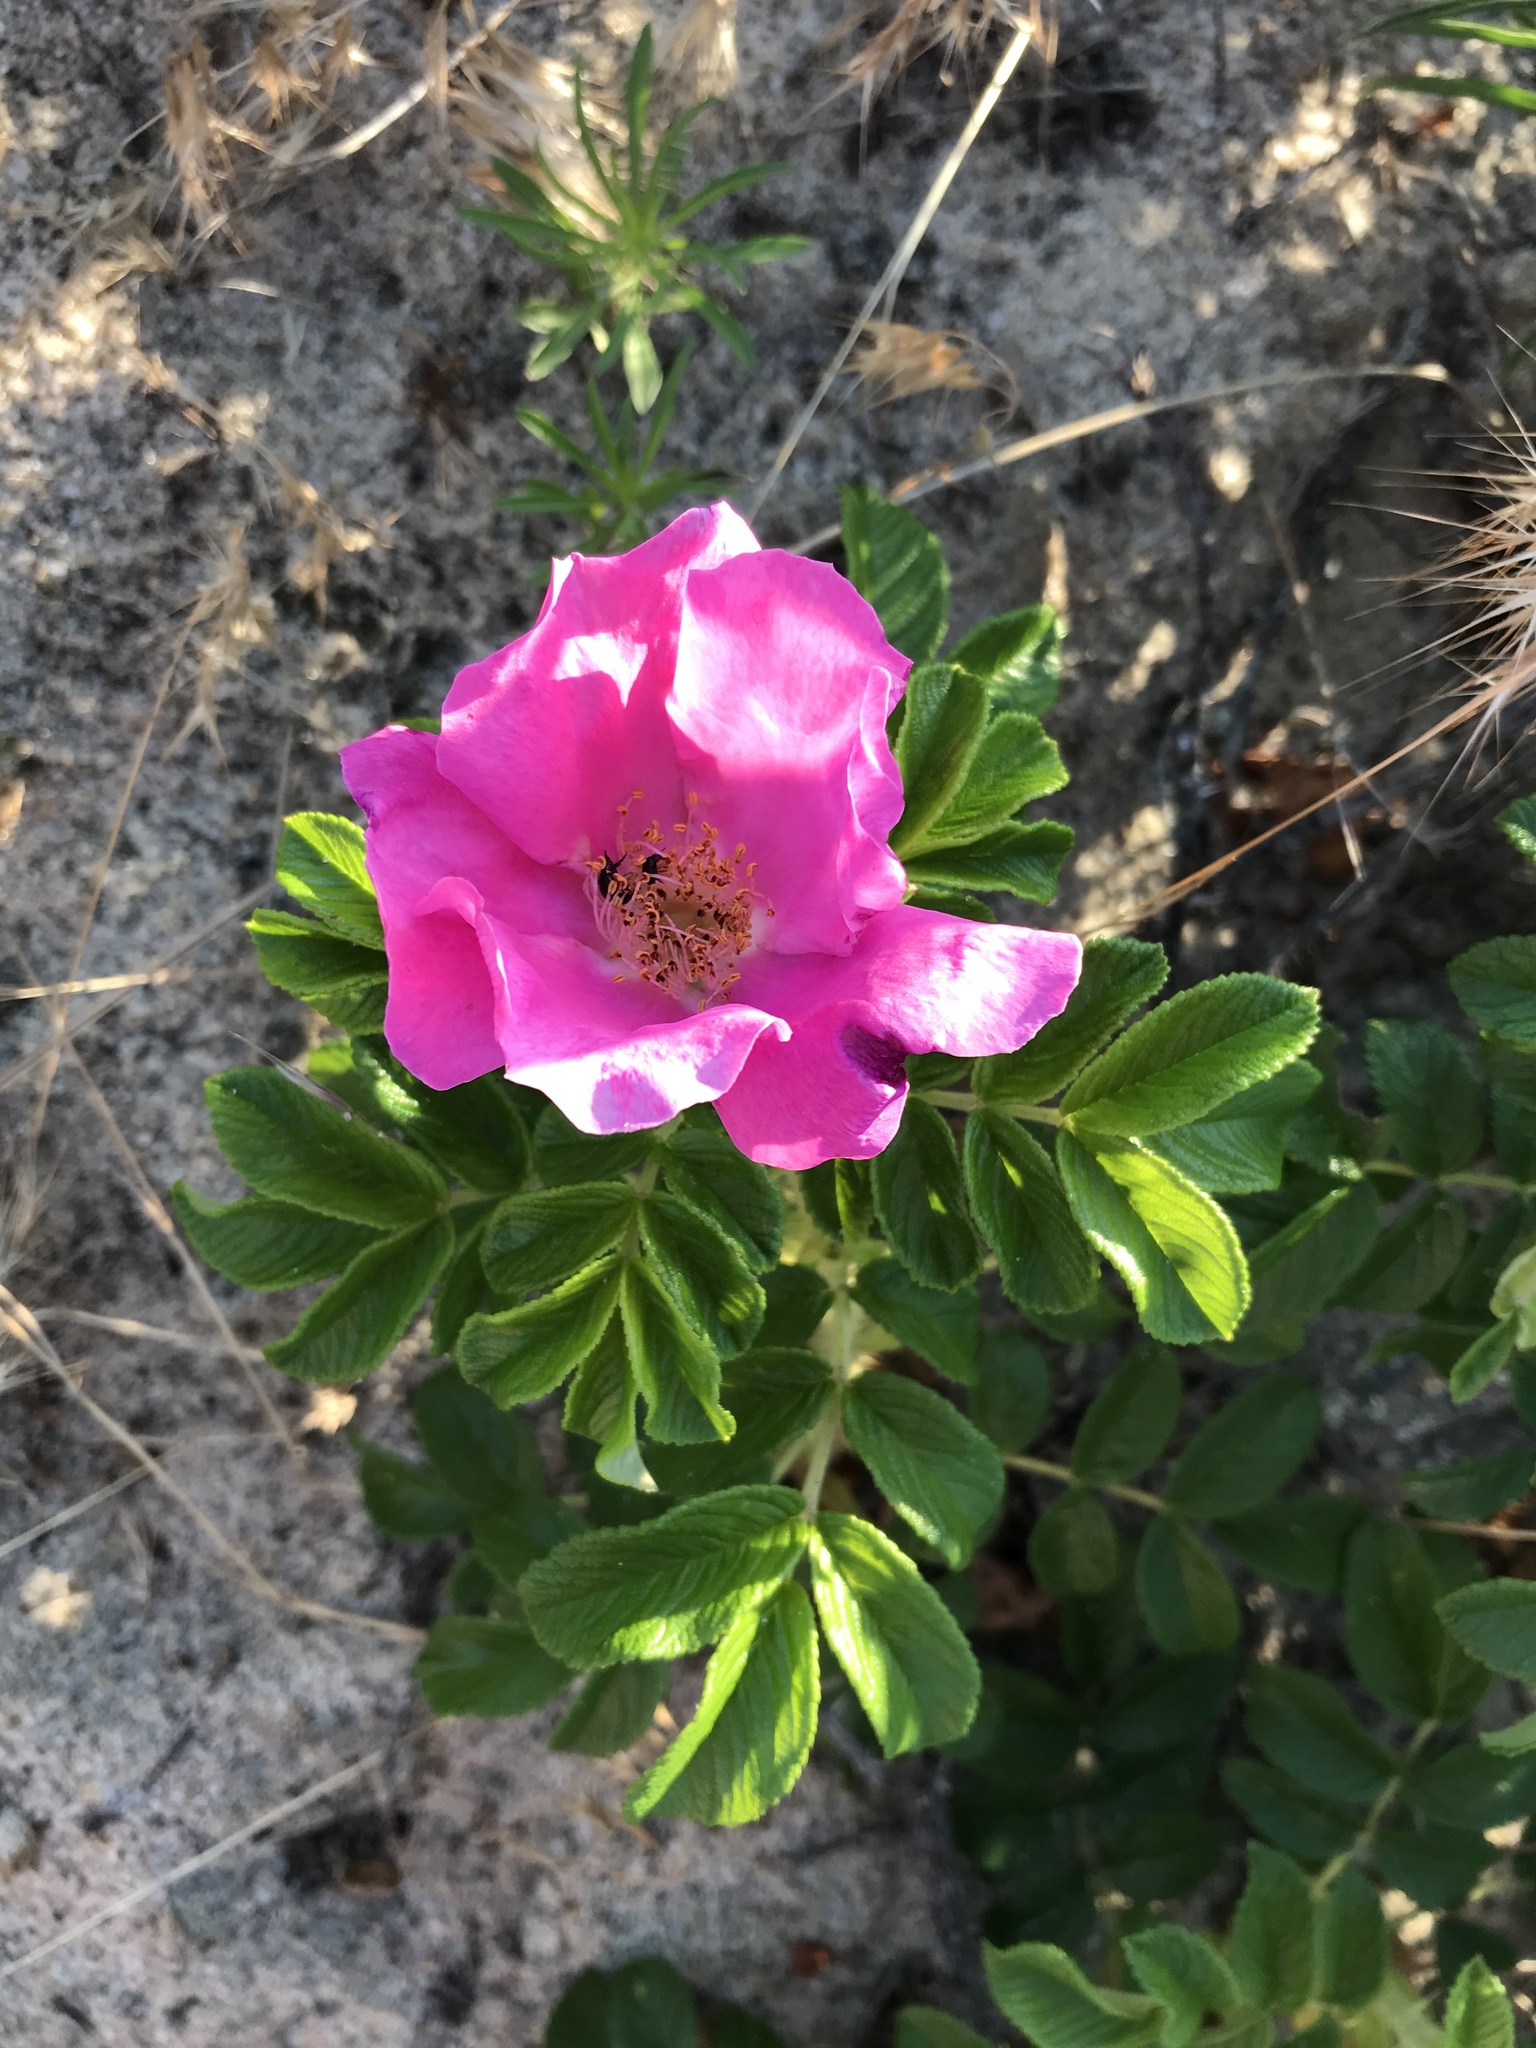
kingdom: Plantae
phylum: Tracheophyta
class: Magnoliopsida
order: Rosales
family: Rosaceae
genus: Rosa
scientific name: Rosa rugosa
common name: Japanese rose
